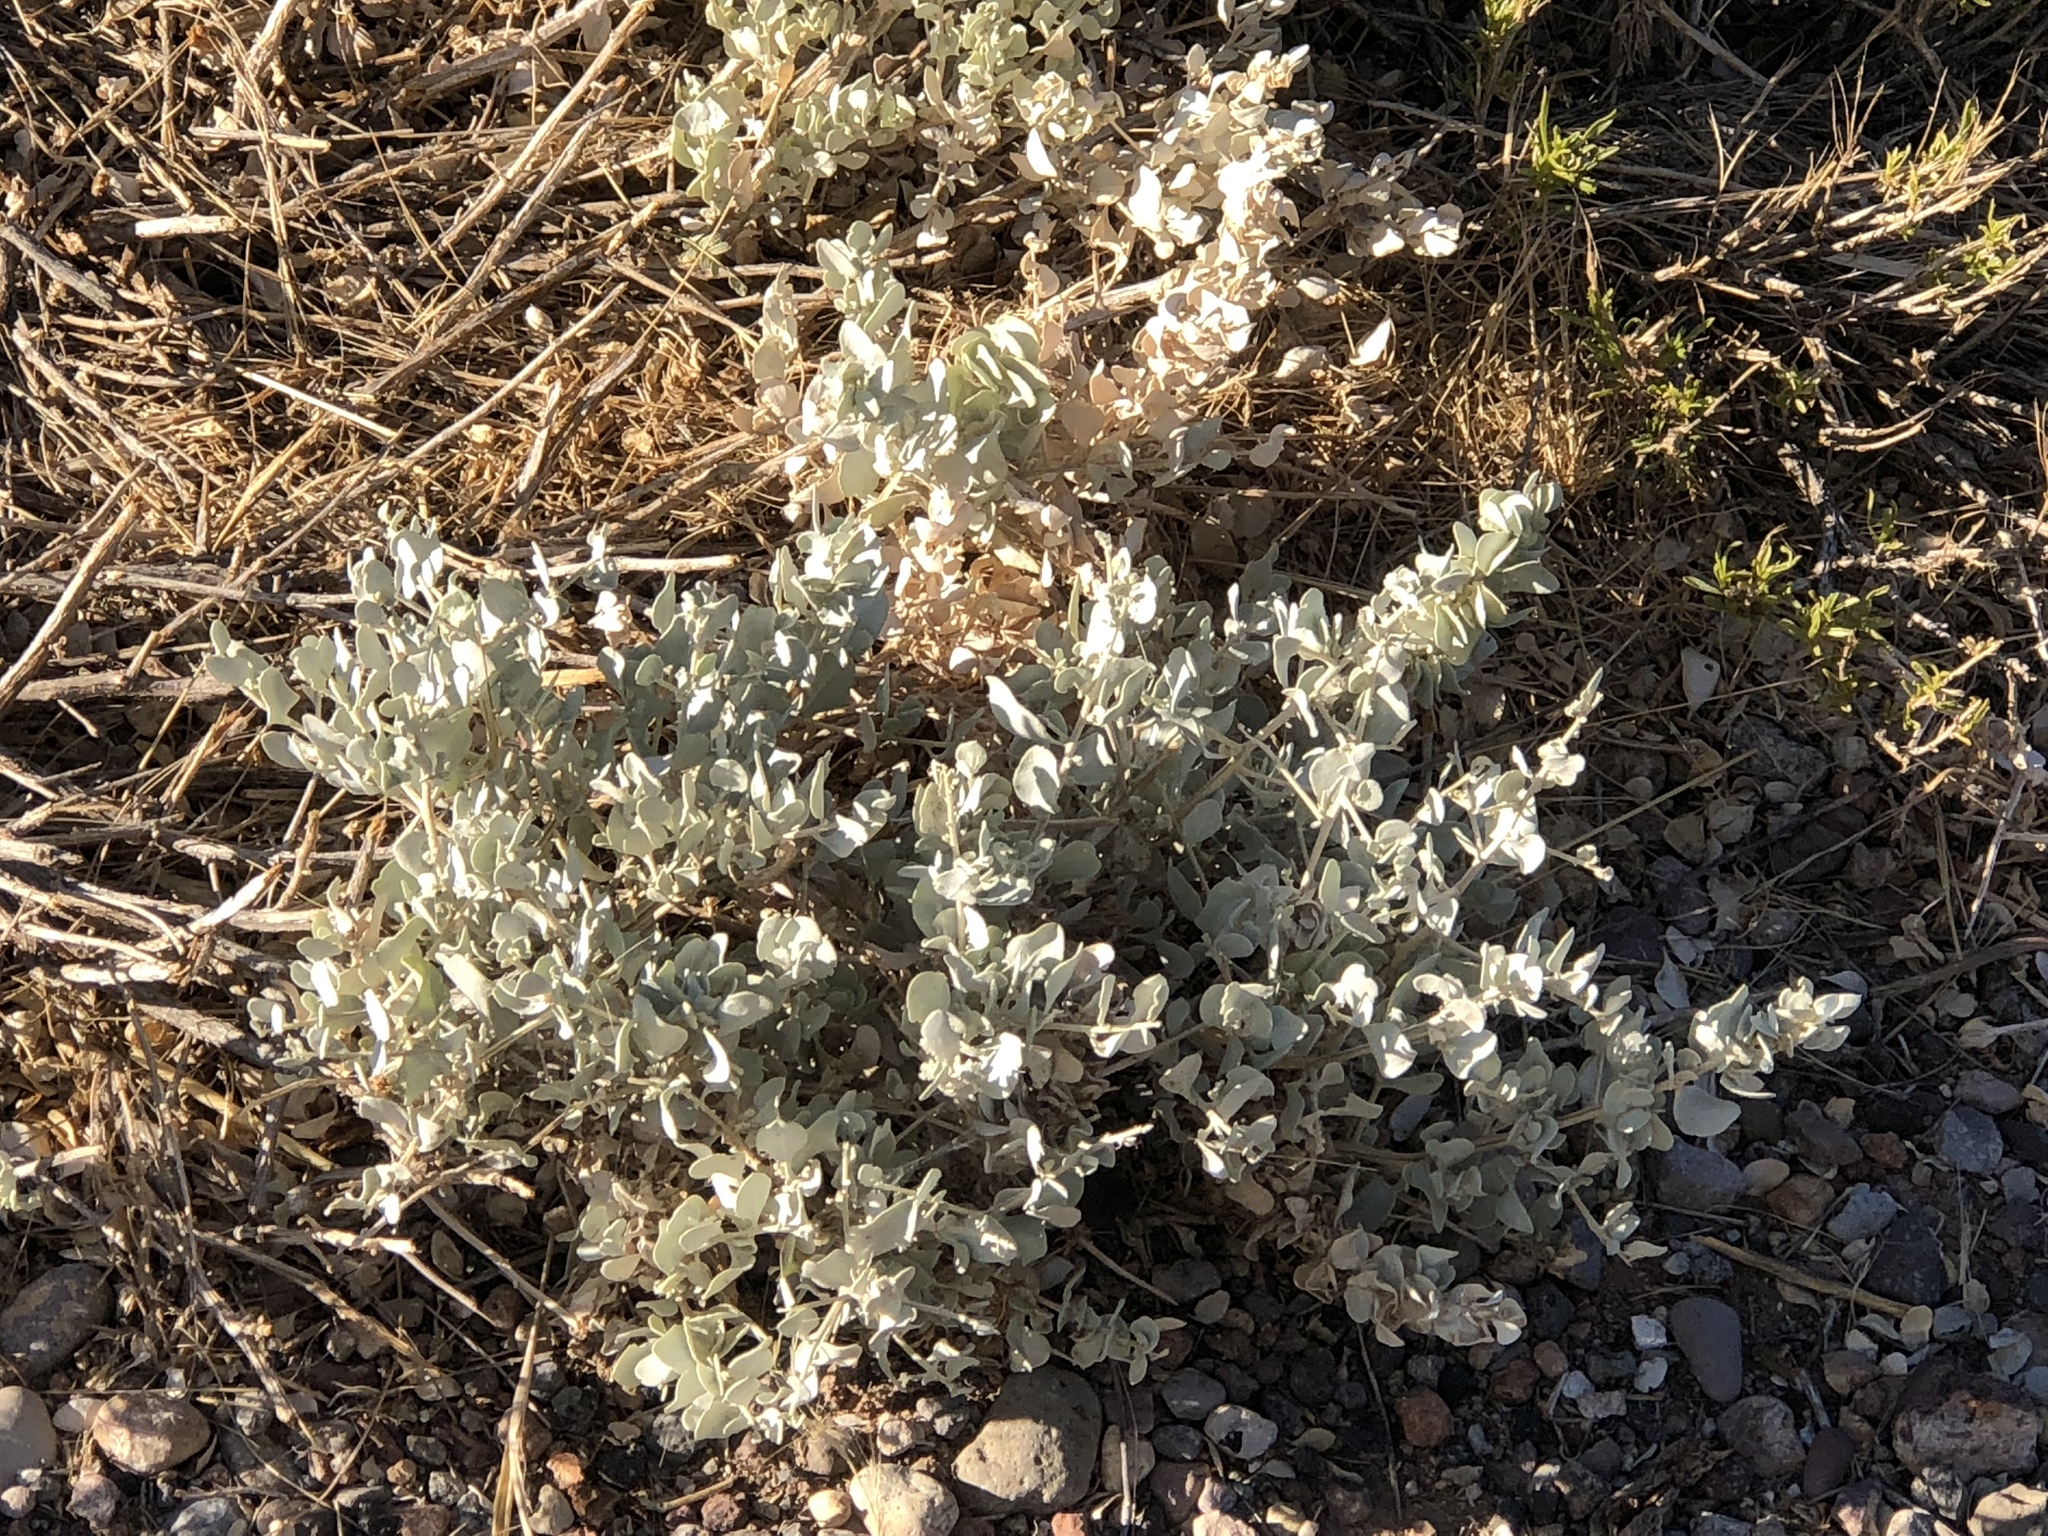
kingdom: Plantae
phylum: Tracheophyta
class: Magnoliopsida
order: Lamiales
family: Scrophulariaceae
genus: Leucophyllum
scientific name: Leucophyllum frutescens
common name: Texas silverleaf
